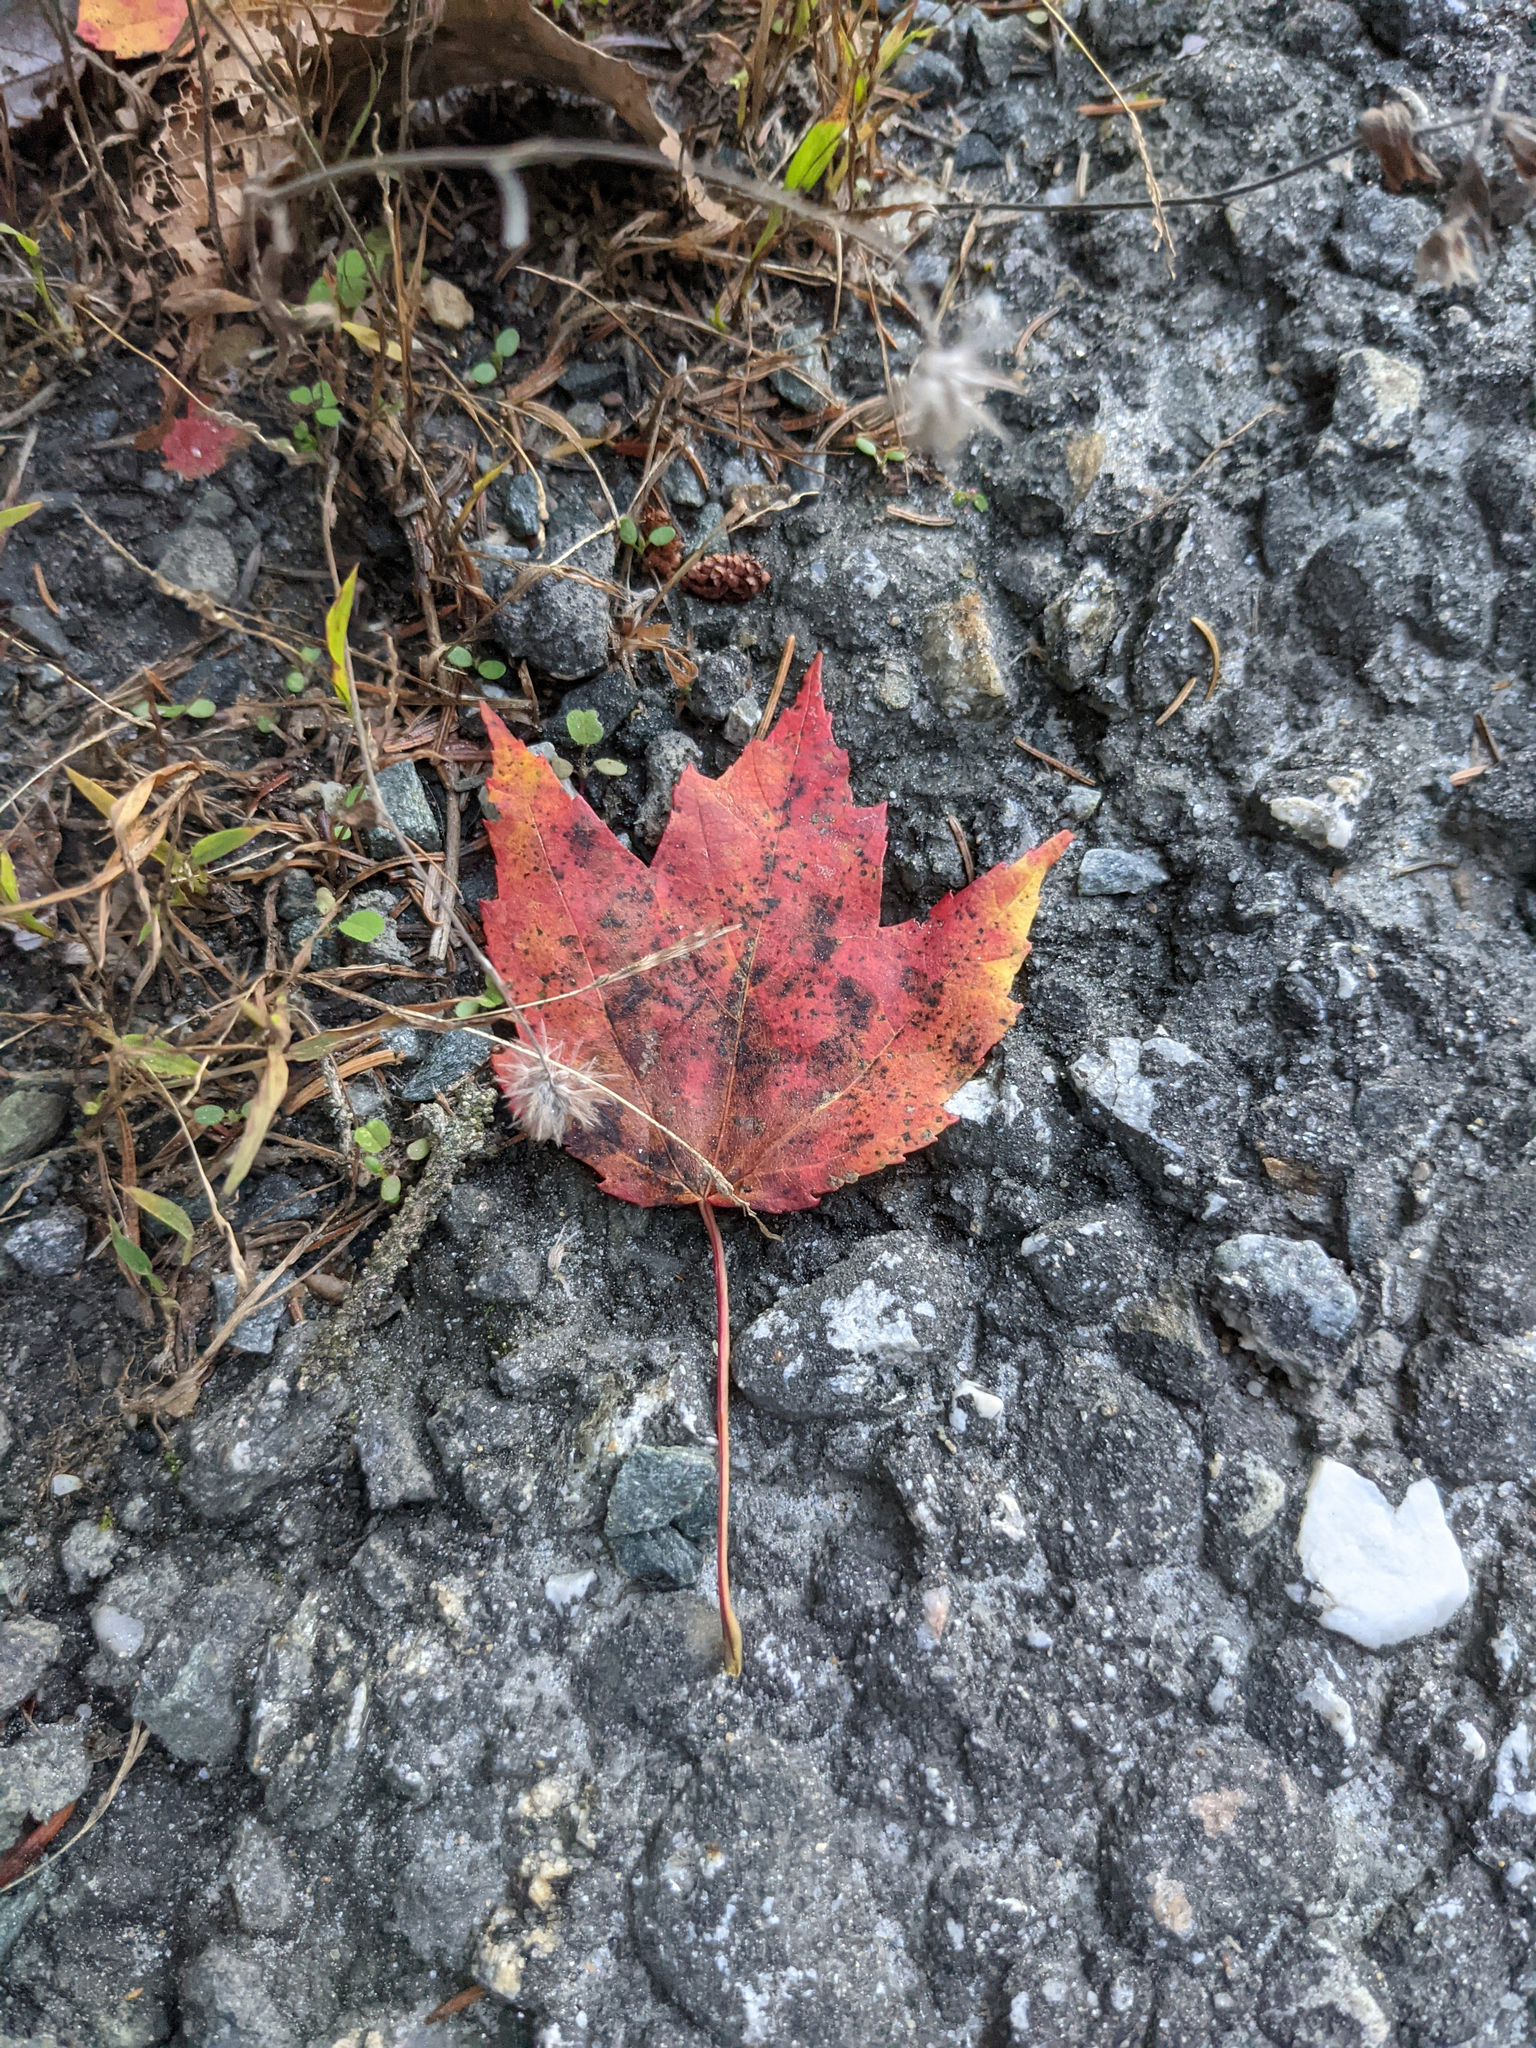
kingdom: Plantae
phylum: Tracheophyta
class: Magnoliopsida
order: Sapindales
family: Sapindaceae
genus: Acer
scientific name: Acer rubrum
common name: Red maple
